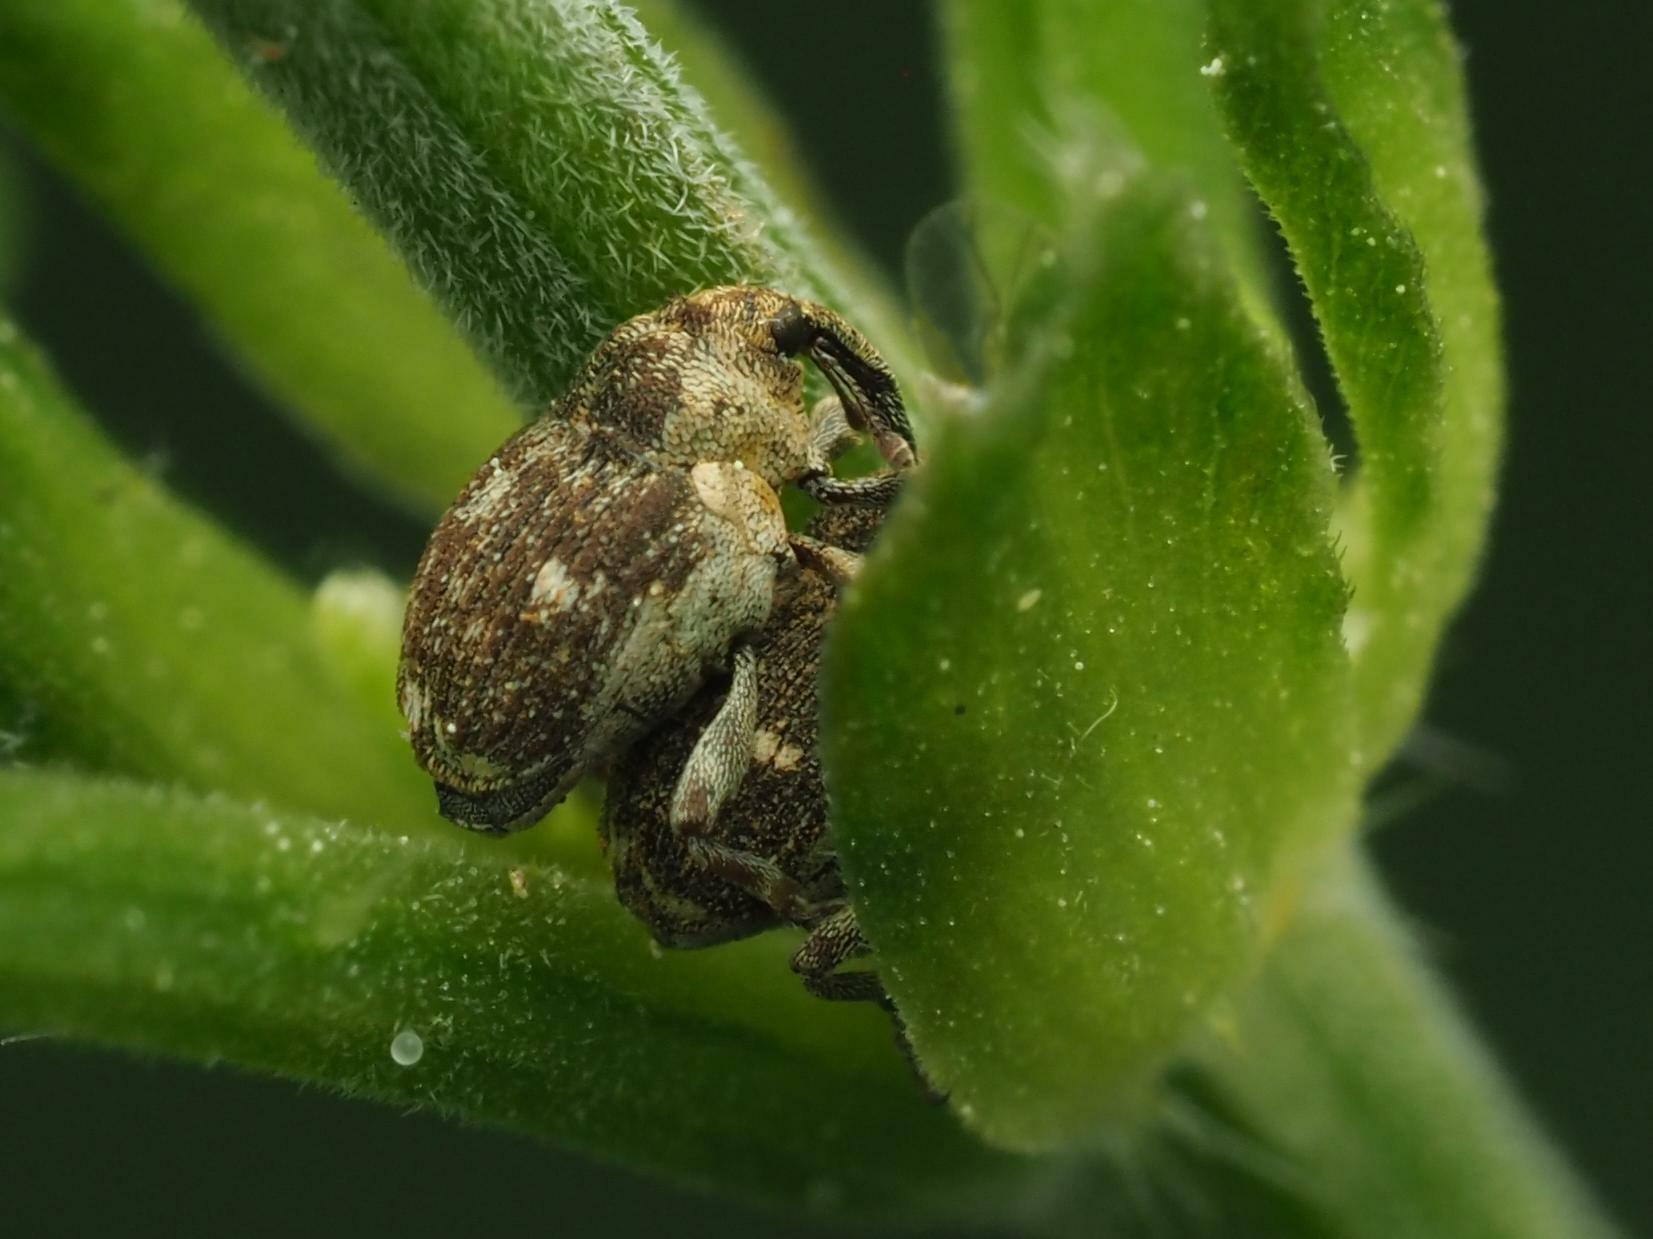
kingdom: Animalia
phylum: Arthropoda
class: Insecta
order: Coleoptera
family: Curculionidae
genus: Nedyus
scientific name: Nedyus quadrimaculatus
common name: Small nettle weevil
